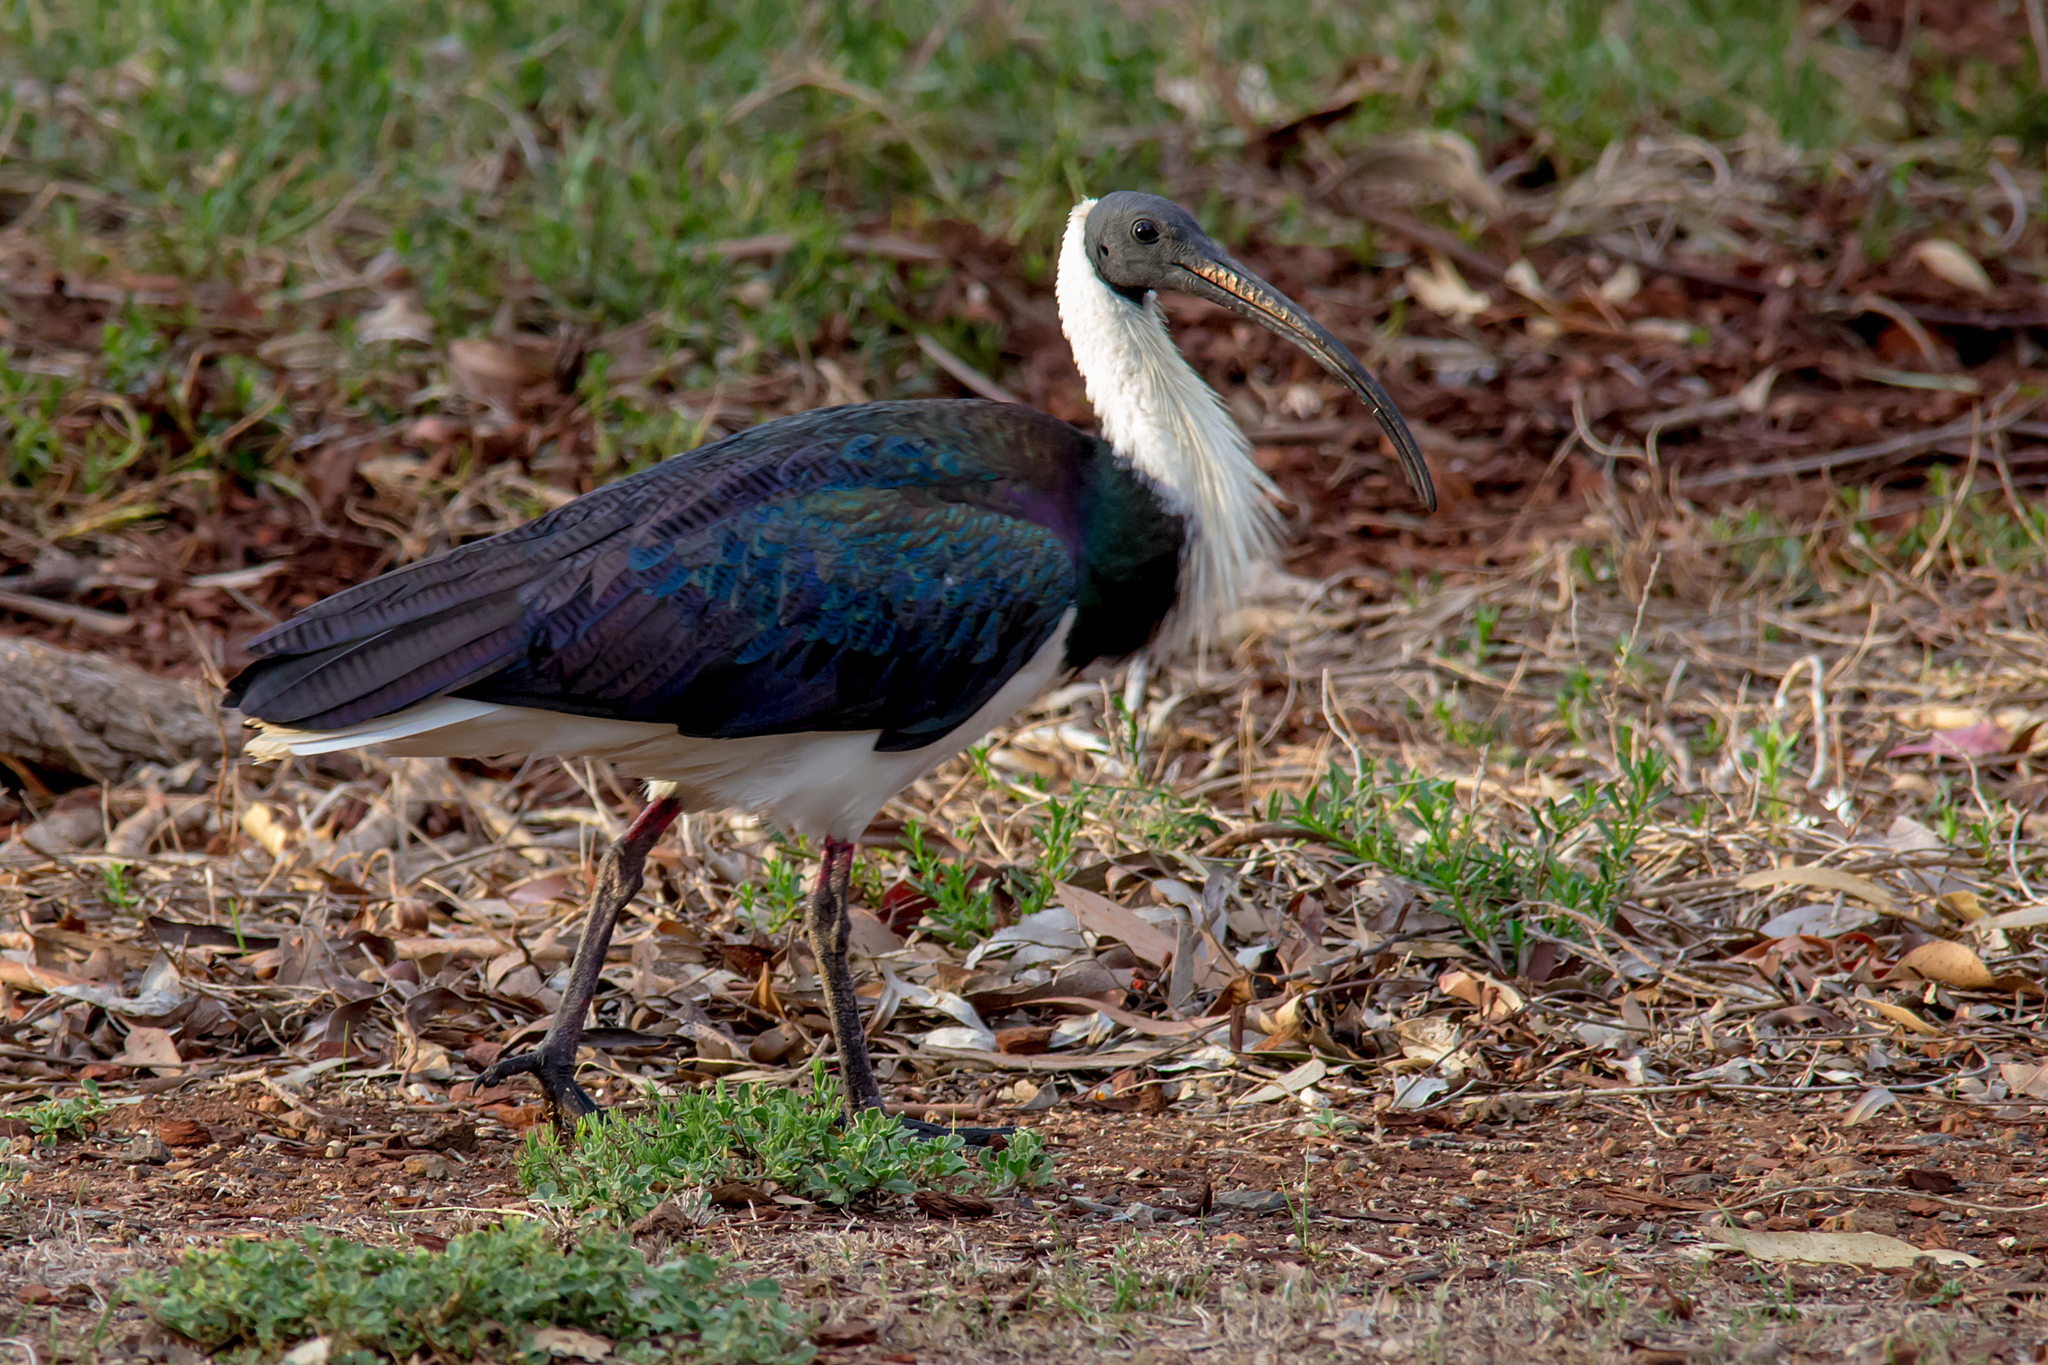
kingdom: Animalia
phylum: Chordata
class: Aves
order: Pelecaniformes
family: Threskiornithidae
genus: Threskiornis
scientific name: Threskiornis spinicollis
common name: Straw-necked ibis
